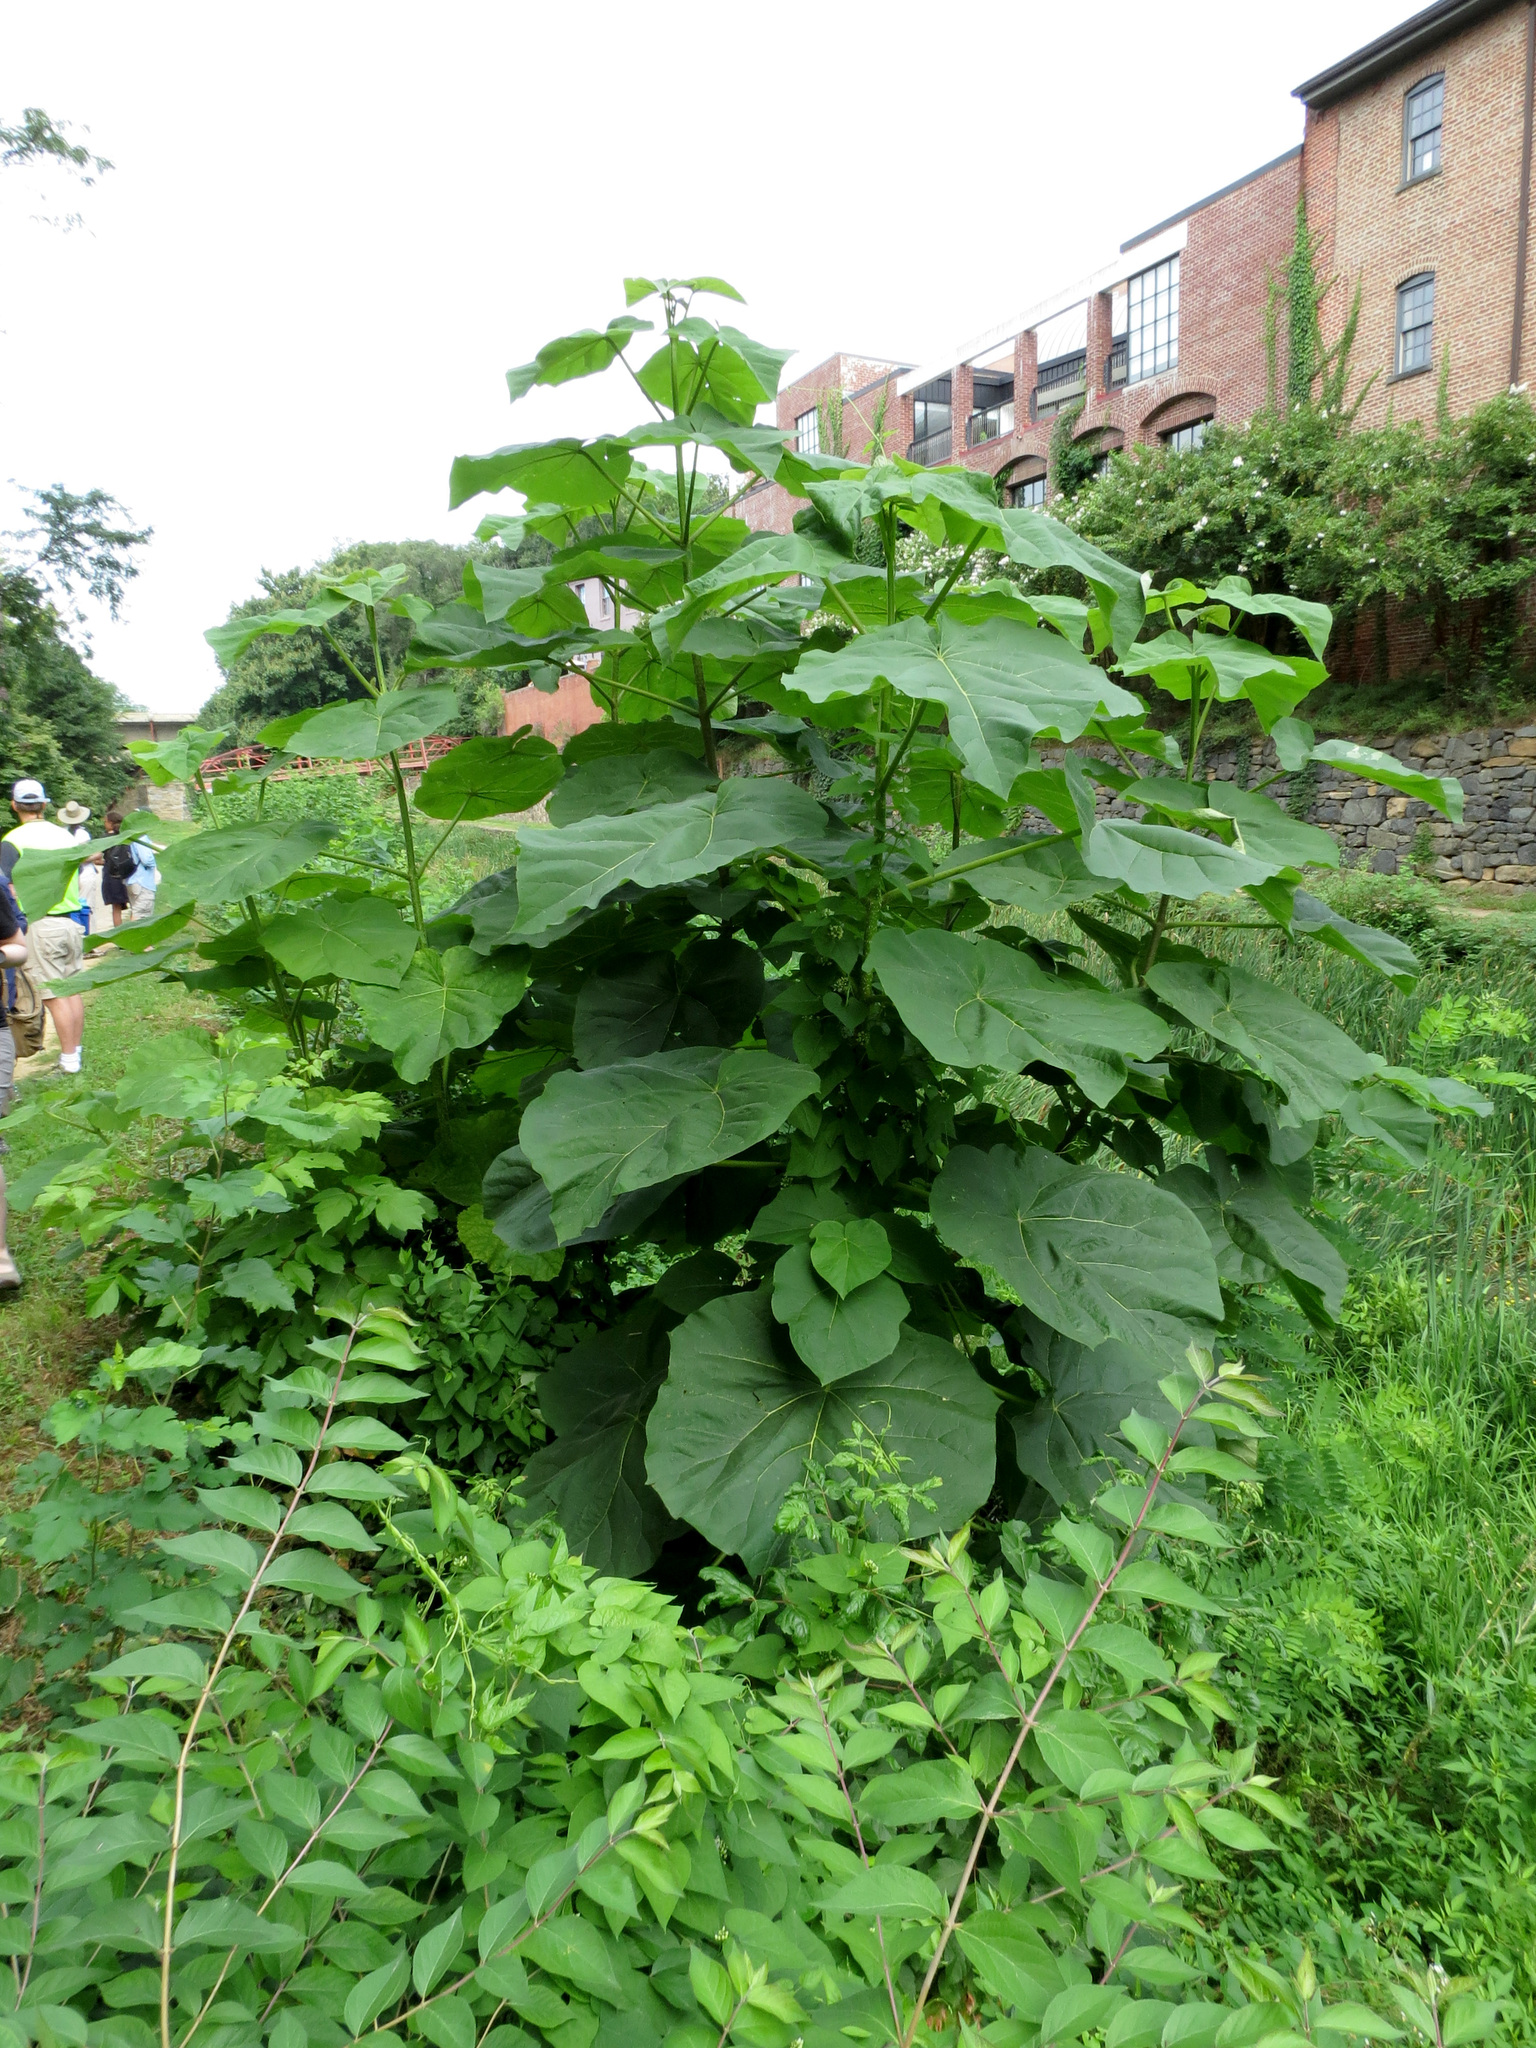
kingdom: Plantae
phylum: Tracheophyta
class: Magnoliopsida
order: Lamiales
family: Paulowniaceae
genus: Paulownia
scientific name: Paulownia tomentosa
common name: Foxglove-tree
